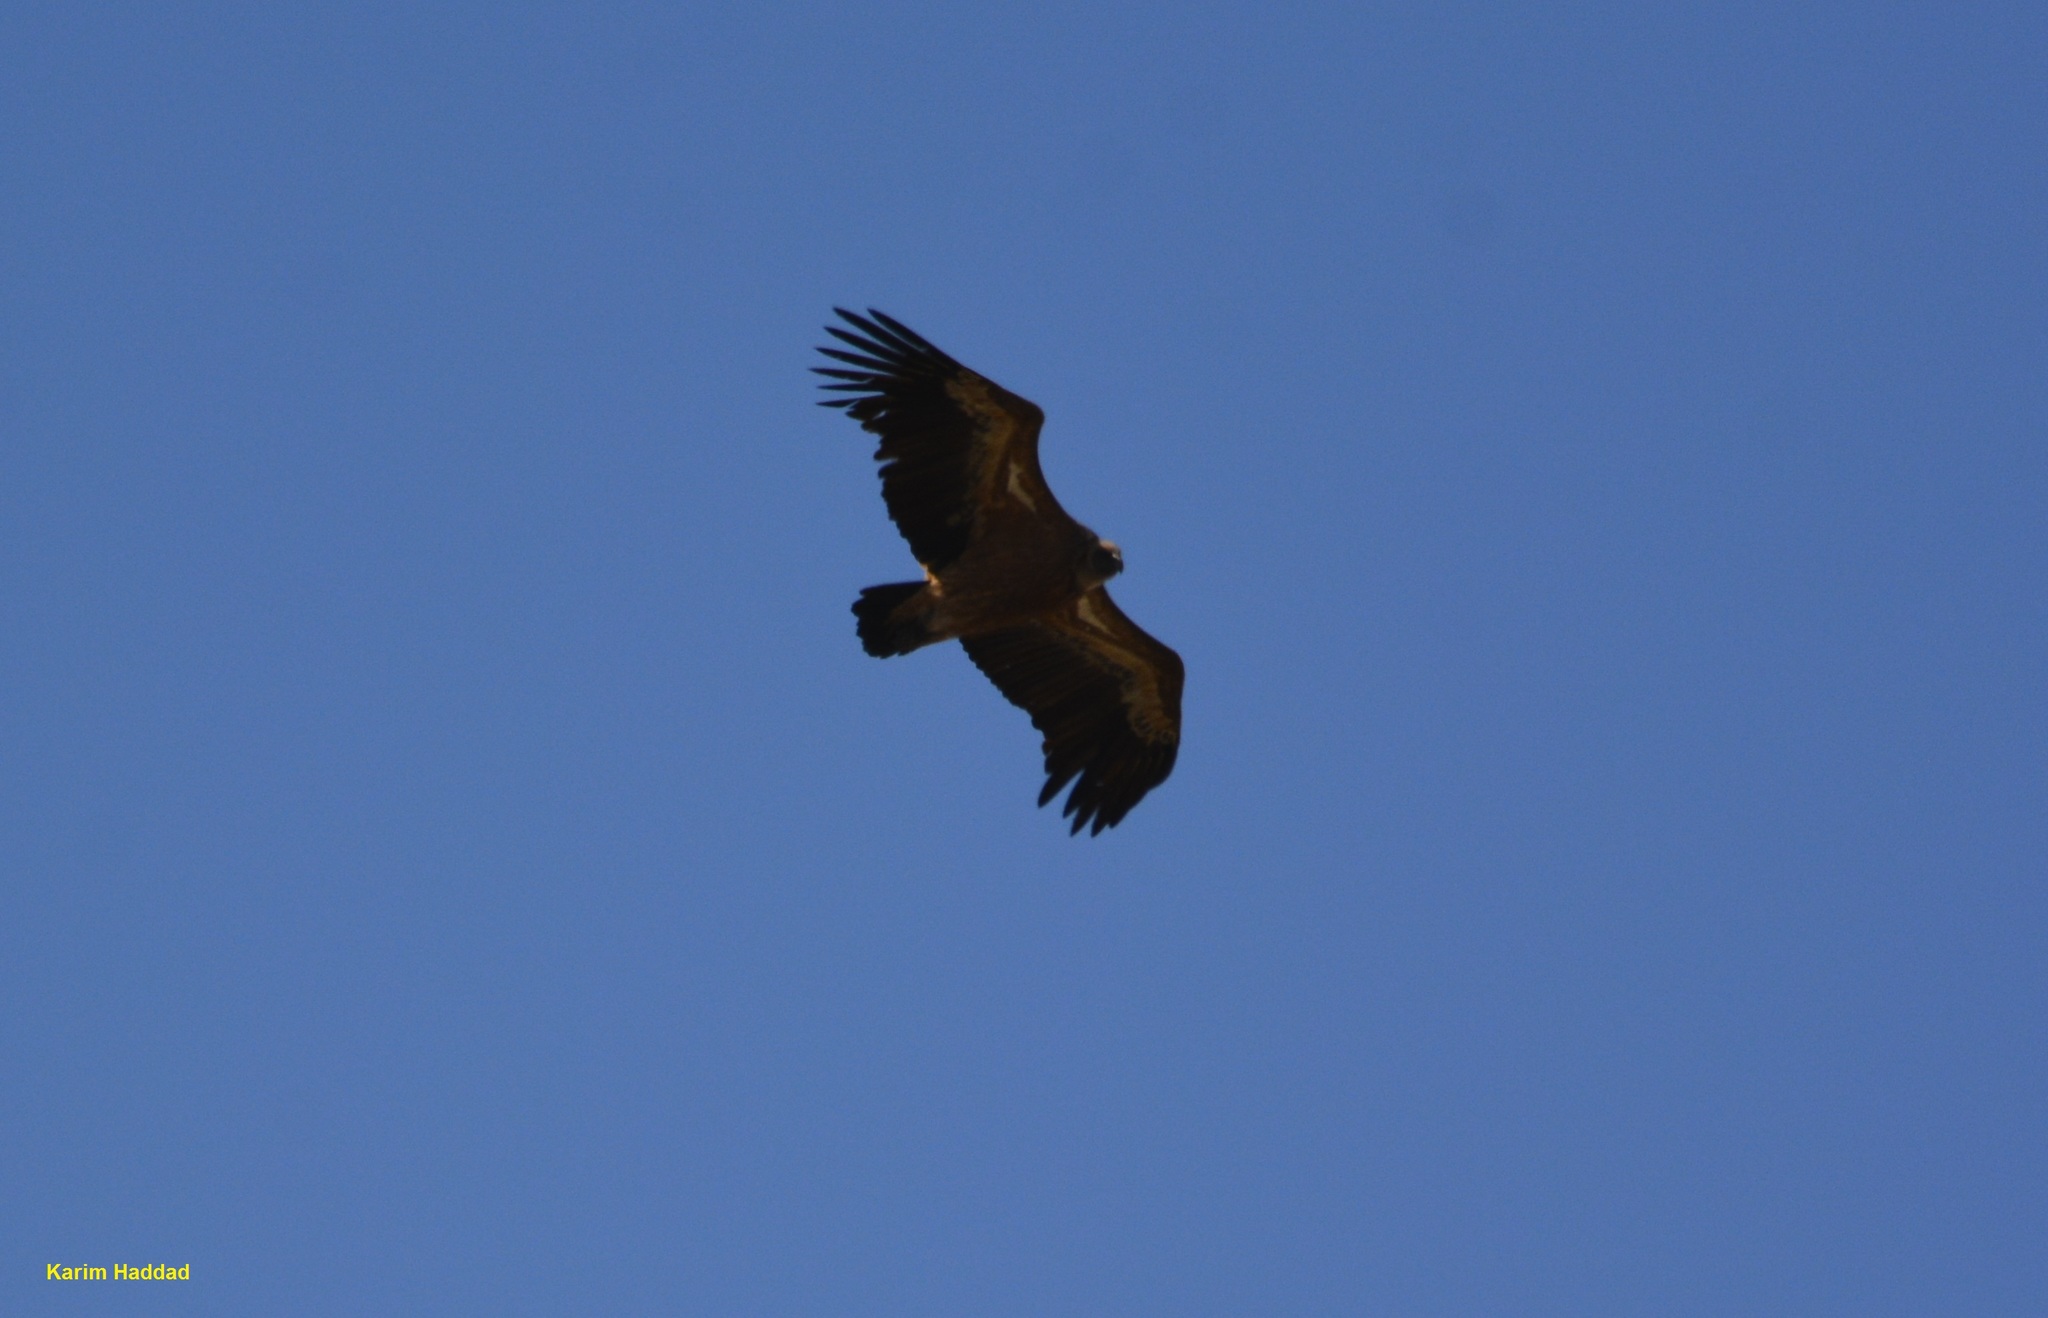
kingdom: Animalia
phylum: Chordata
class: Aves
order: Accipitriformes
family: Accipitridae
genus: Gyps
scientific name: Gyps fulvus
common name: Griffon vulture
